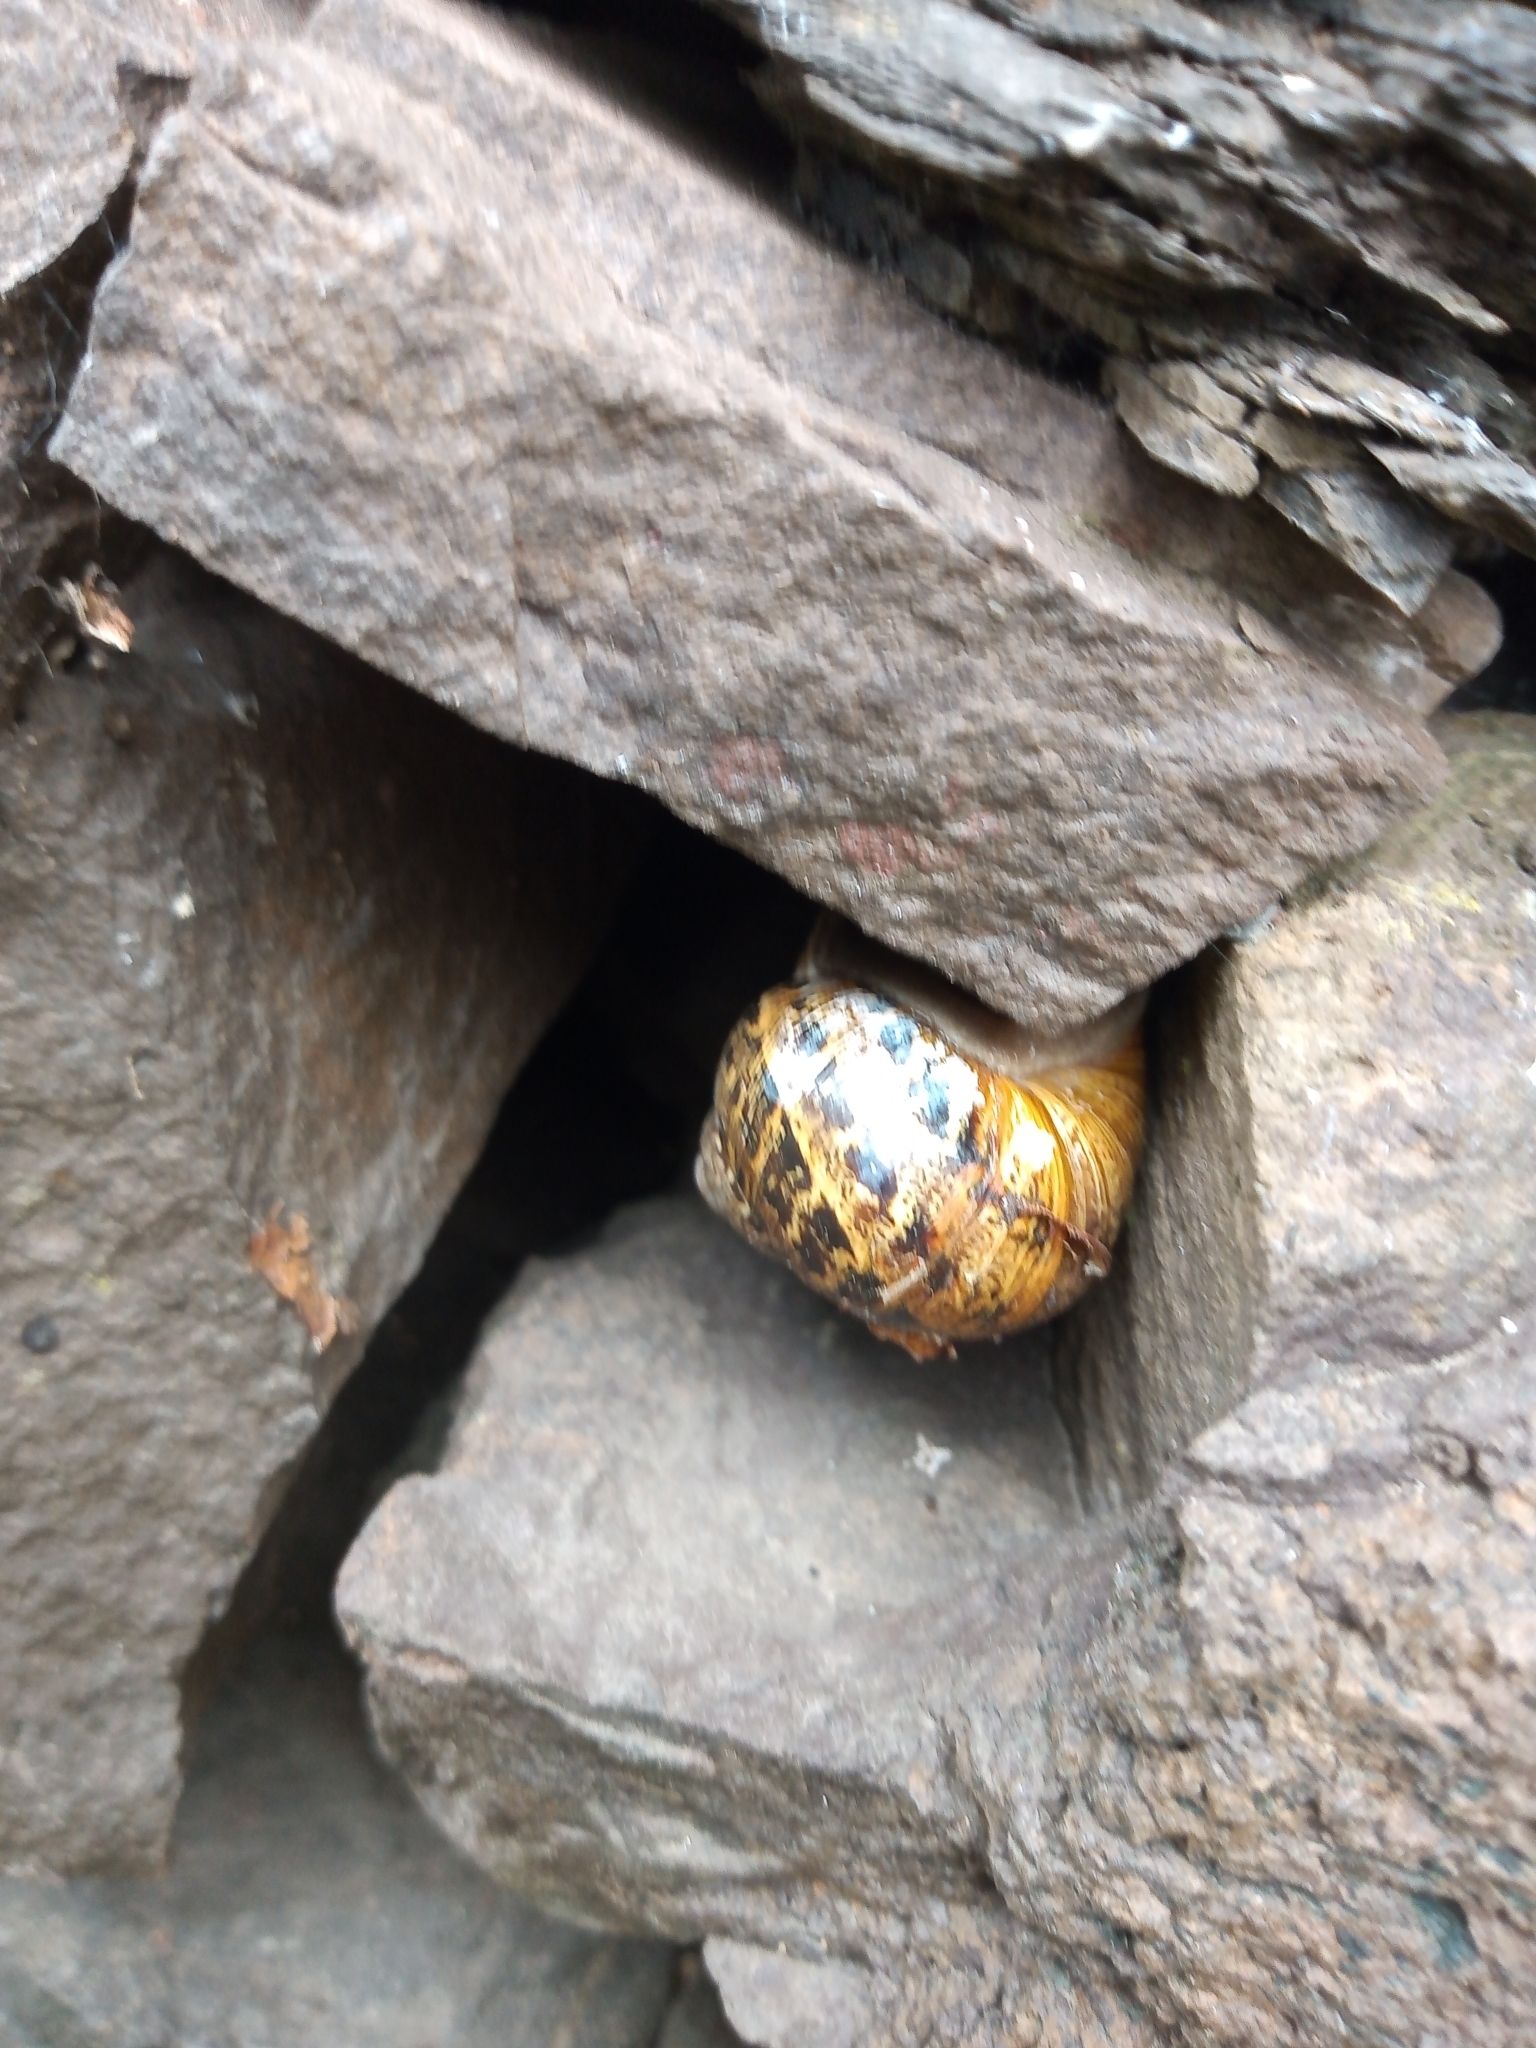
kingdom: Animalia
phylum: Mollusca
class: Gastropoda
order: Stylommatophora
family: Helicidae
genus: Cornu
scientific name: Cornu aspersum
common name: Brown garden snail
